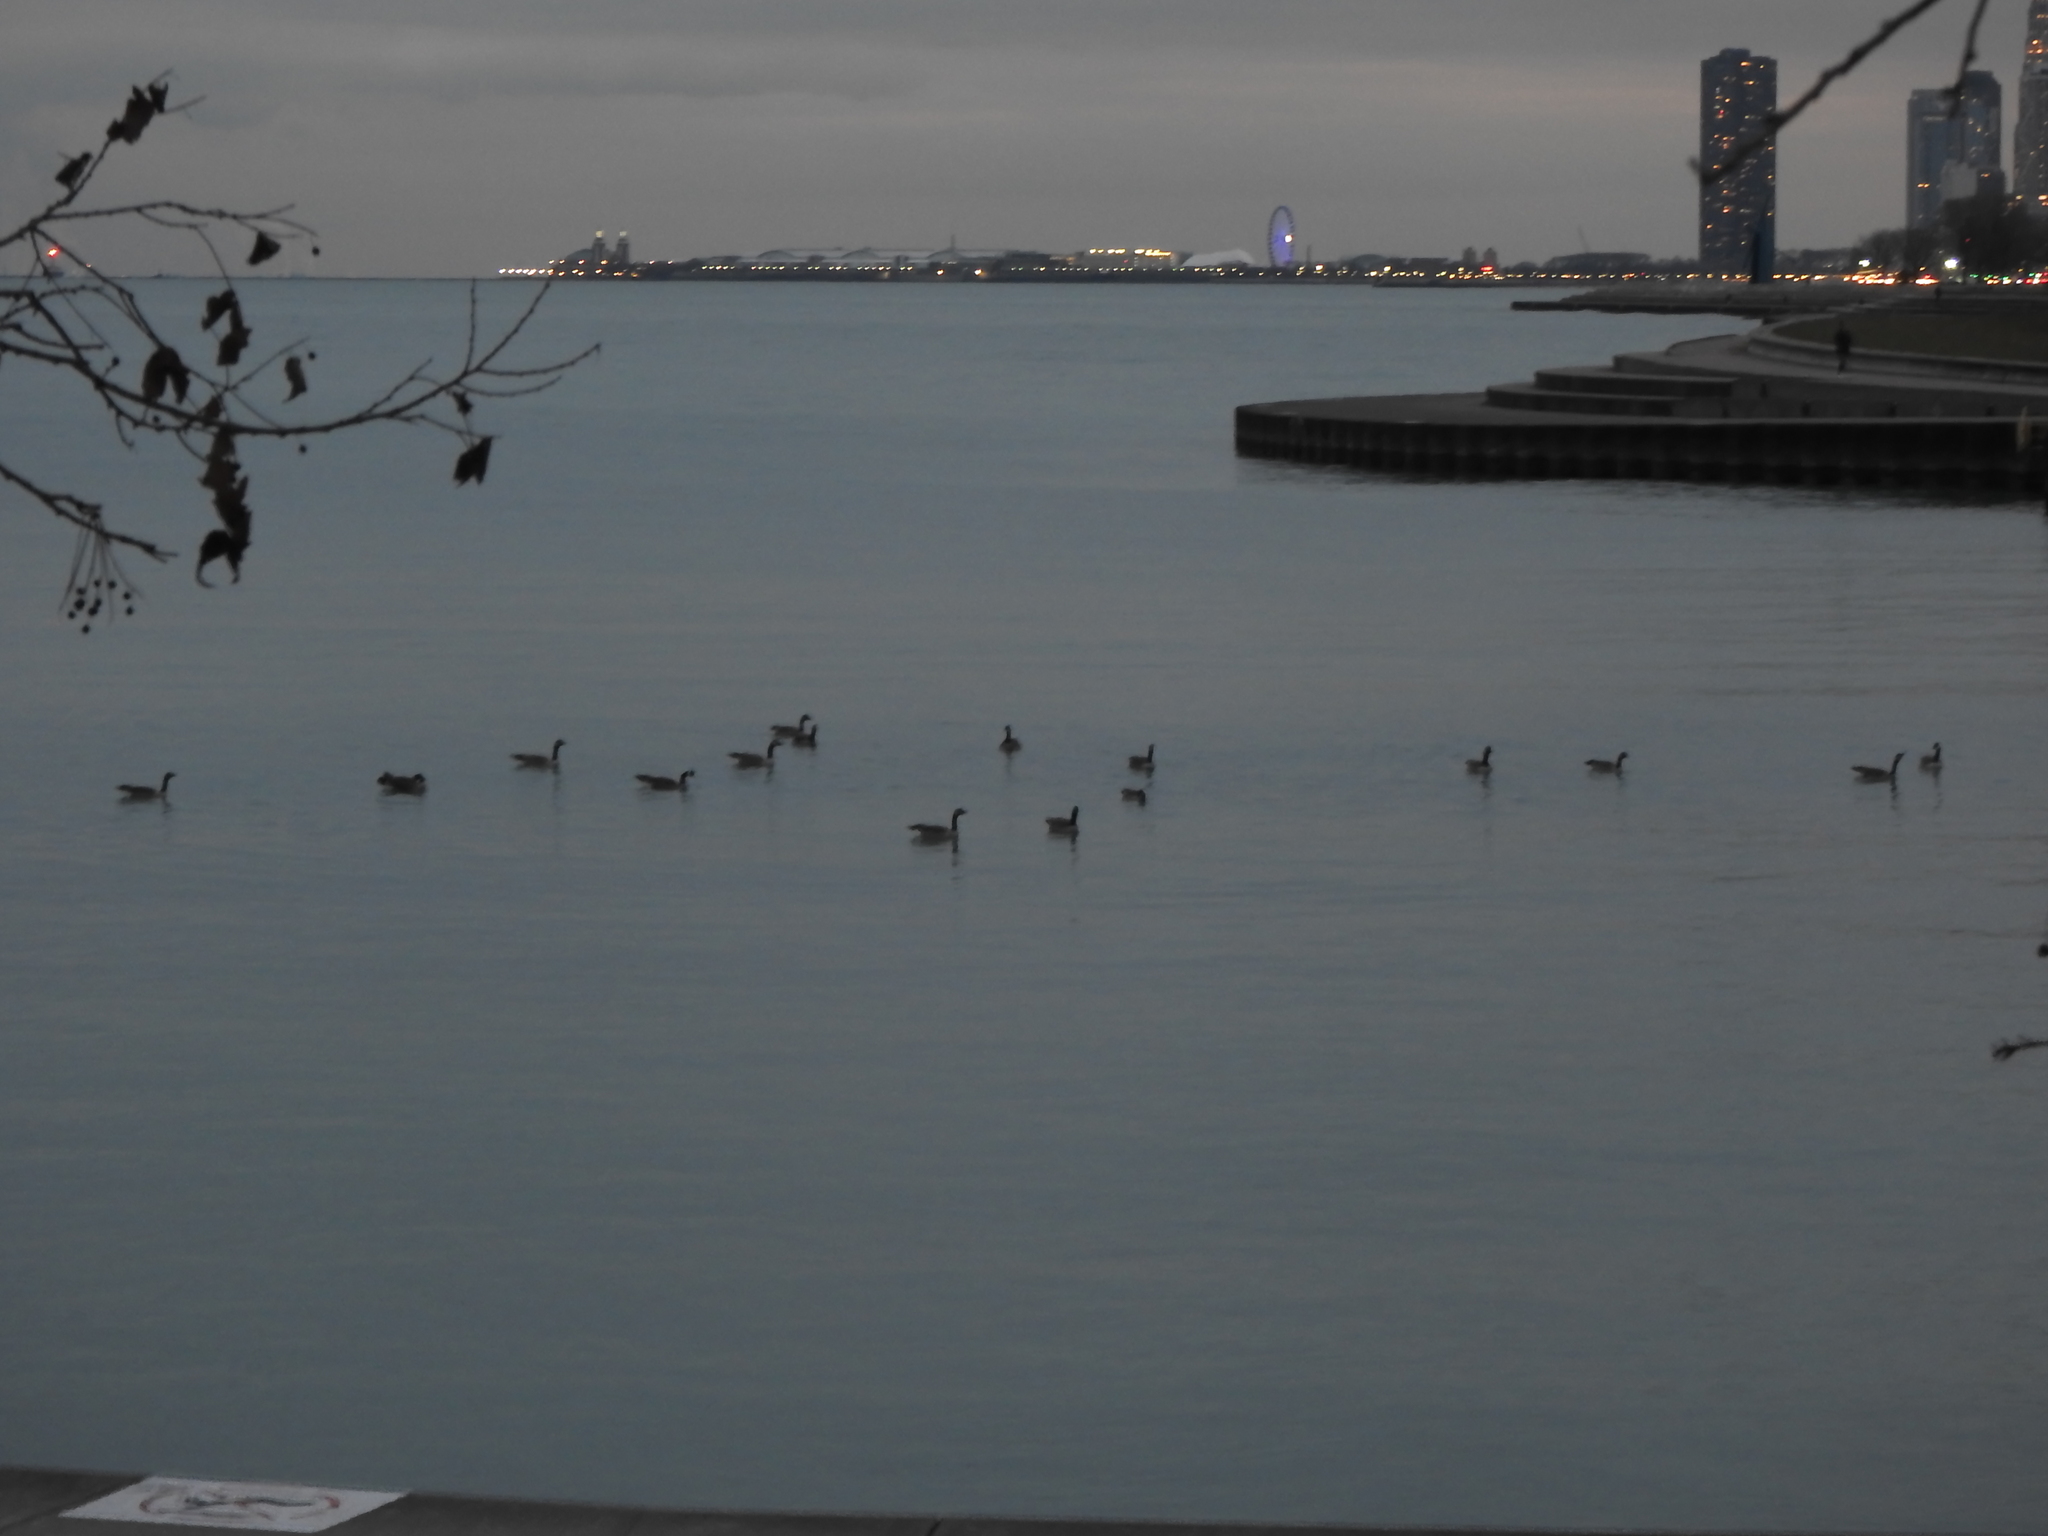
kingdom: Animalia
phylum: Chordata
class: Aves
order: Anseriformes
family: Anatidae
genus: Branta
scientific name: Branta canadensis
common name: Canada goose
